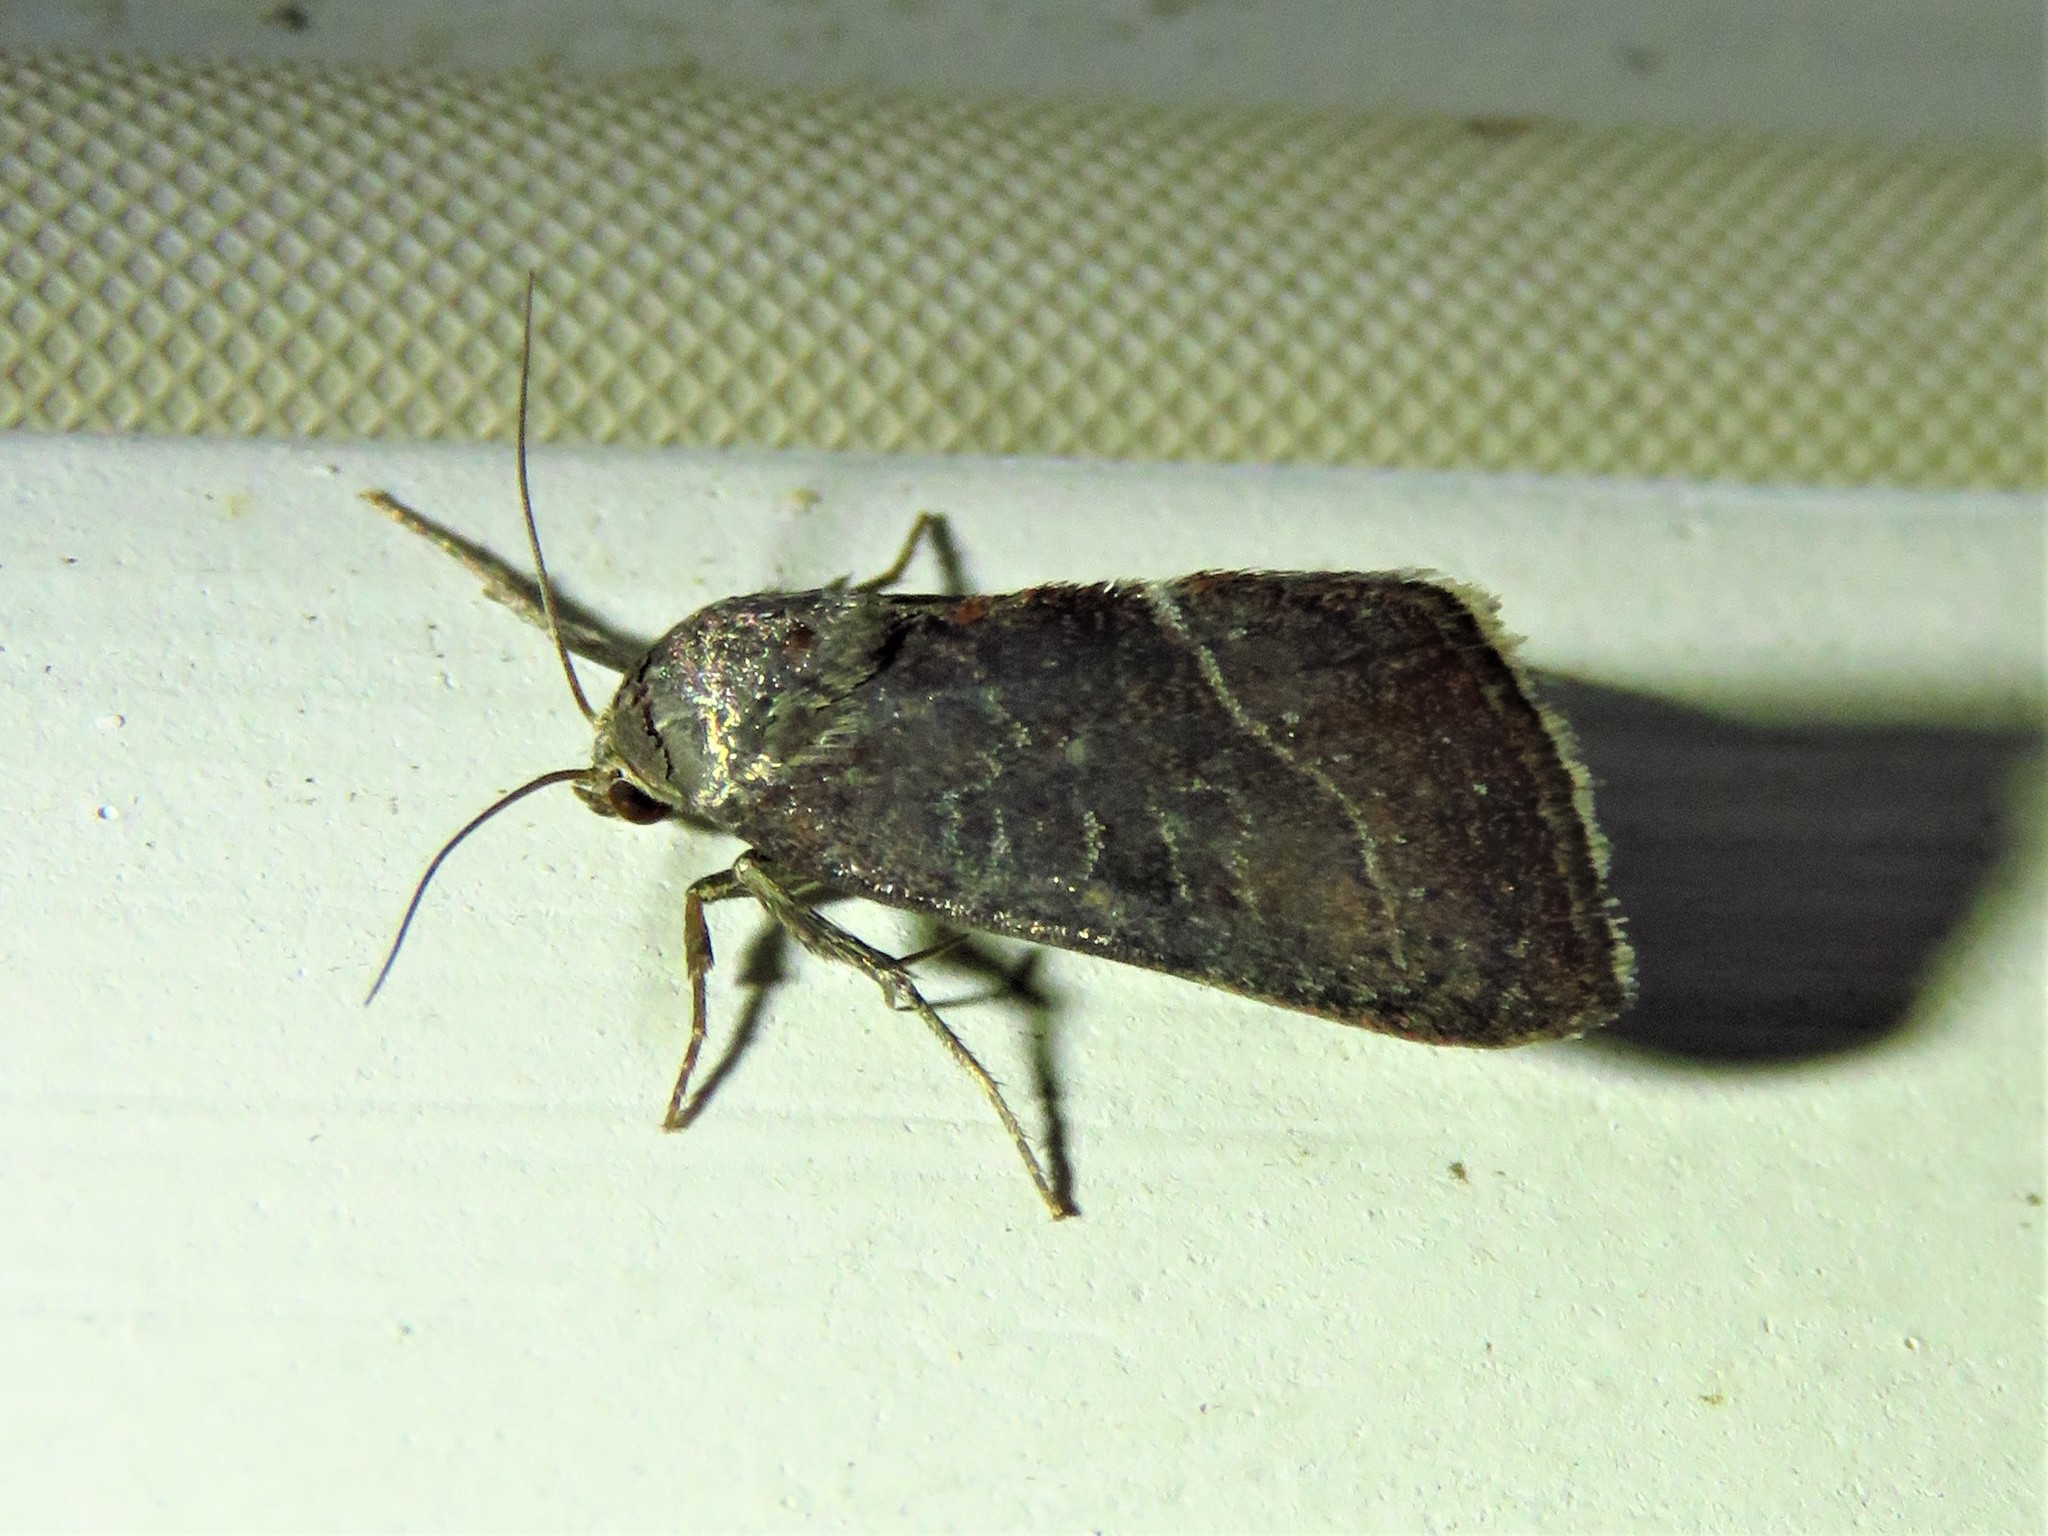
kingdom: Animalia
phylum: Arthropoda
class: Insecta
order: Lepidoptera
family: Noctuidae
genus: Galgula
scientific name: Galgula partita
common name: Wedgeling
